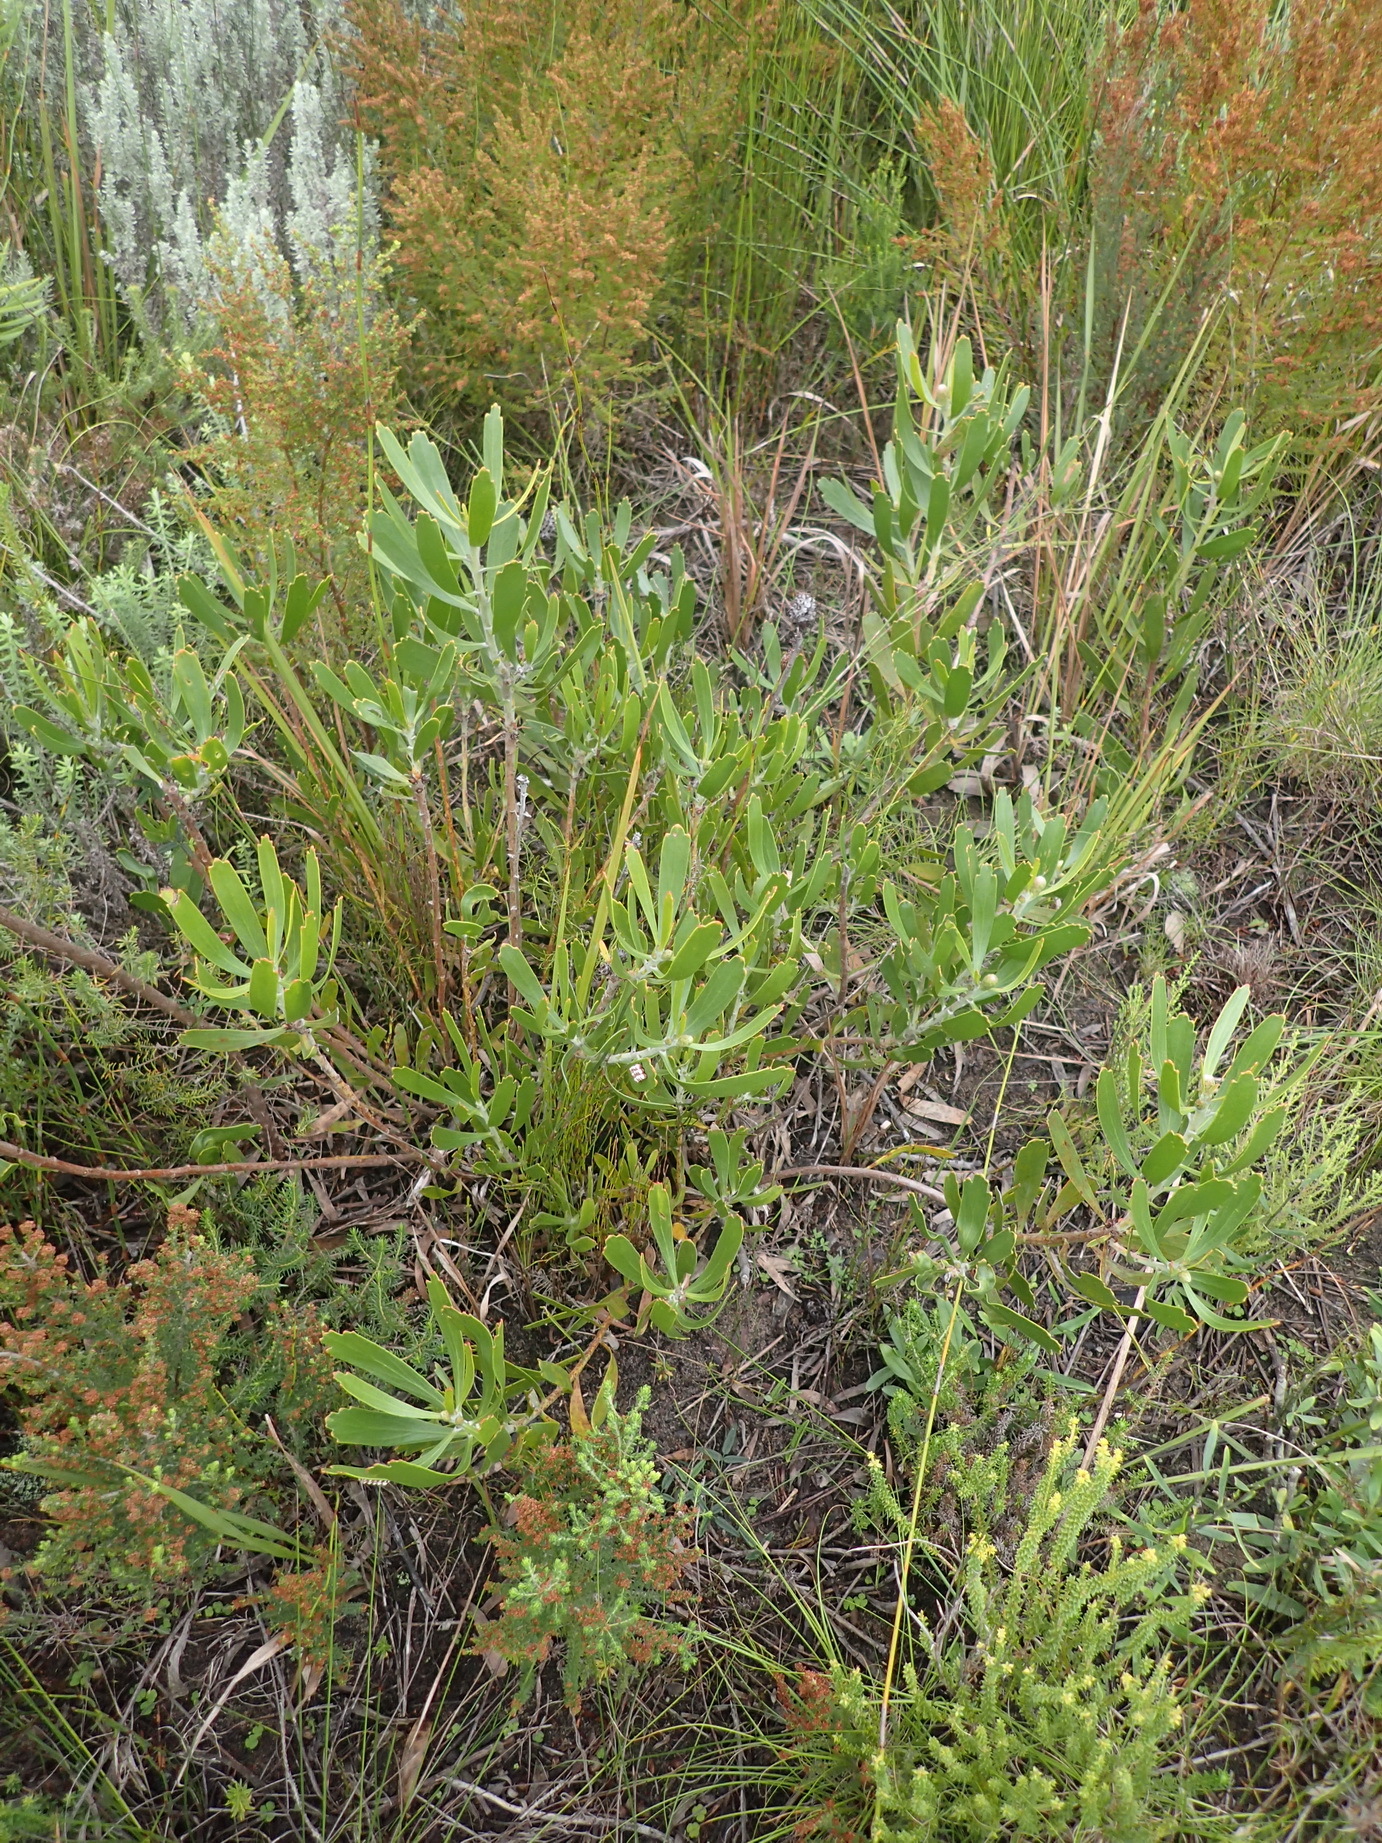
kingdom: Plantae
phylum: Tracheophyta
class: Magnoliopsida
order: Proteales
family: Proteaceae
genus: Leucospermum
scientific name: Leucospermum cuneiforme
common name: Common pincushion
